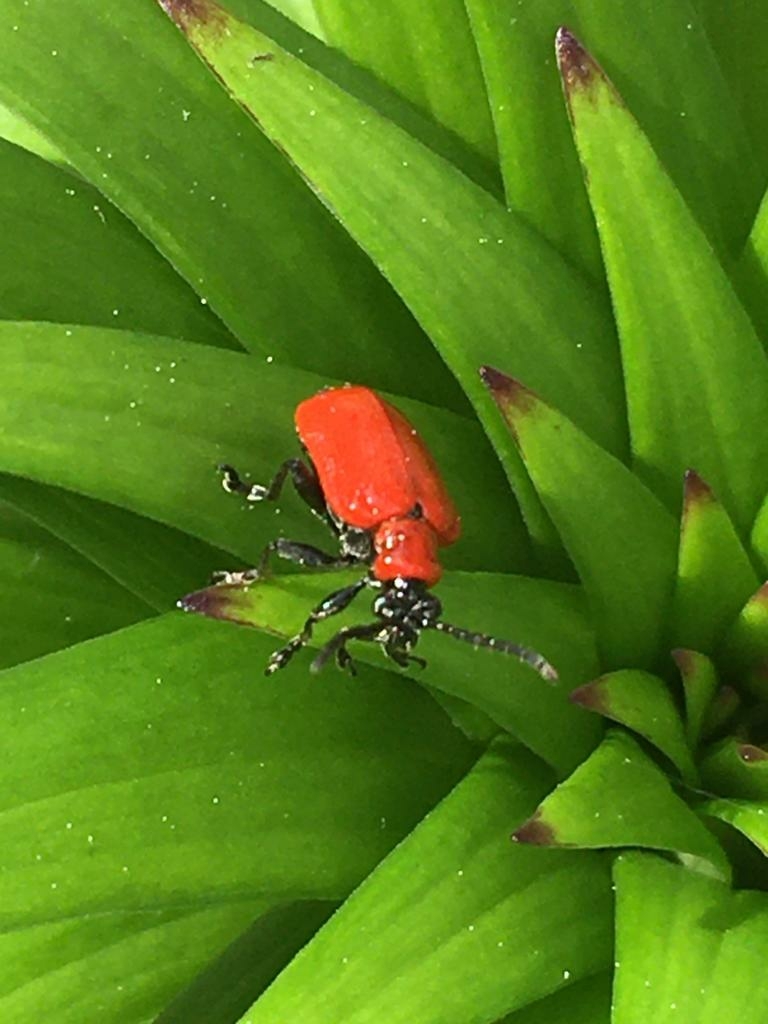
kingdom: Animalia
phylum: Arthropoda
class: Insecta
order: Coleoptera
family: Chrysomelidae
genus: Lilioceris
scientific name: Lilioceris lilii
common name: Lily beetle
